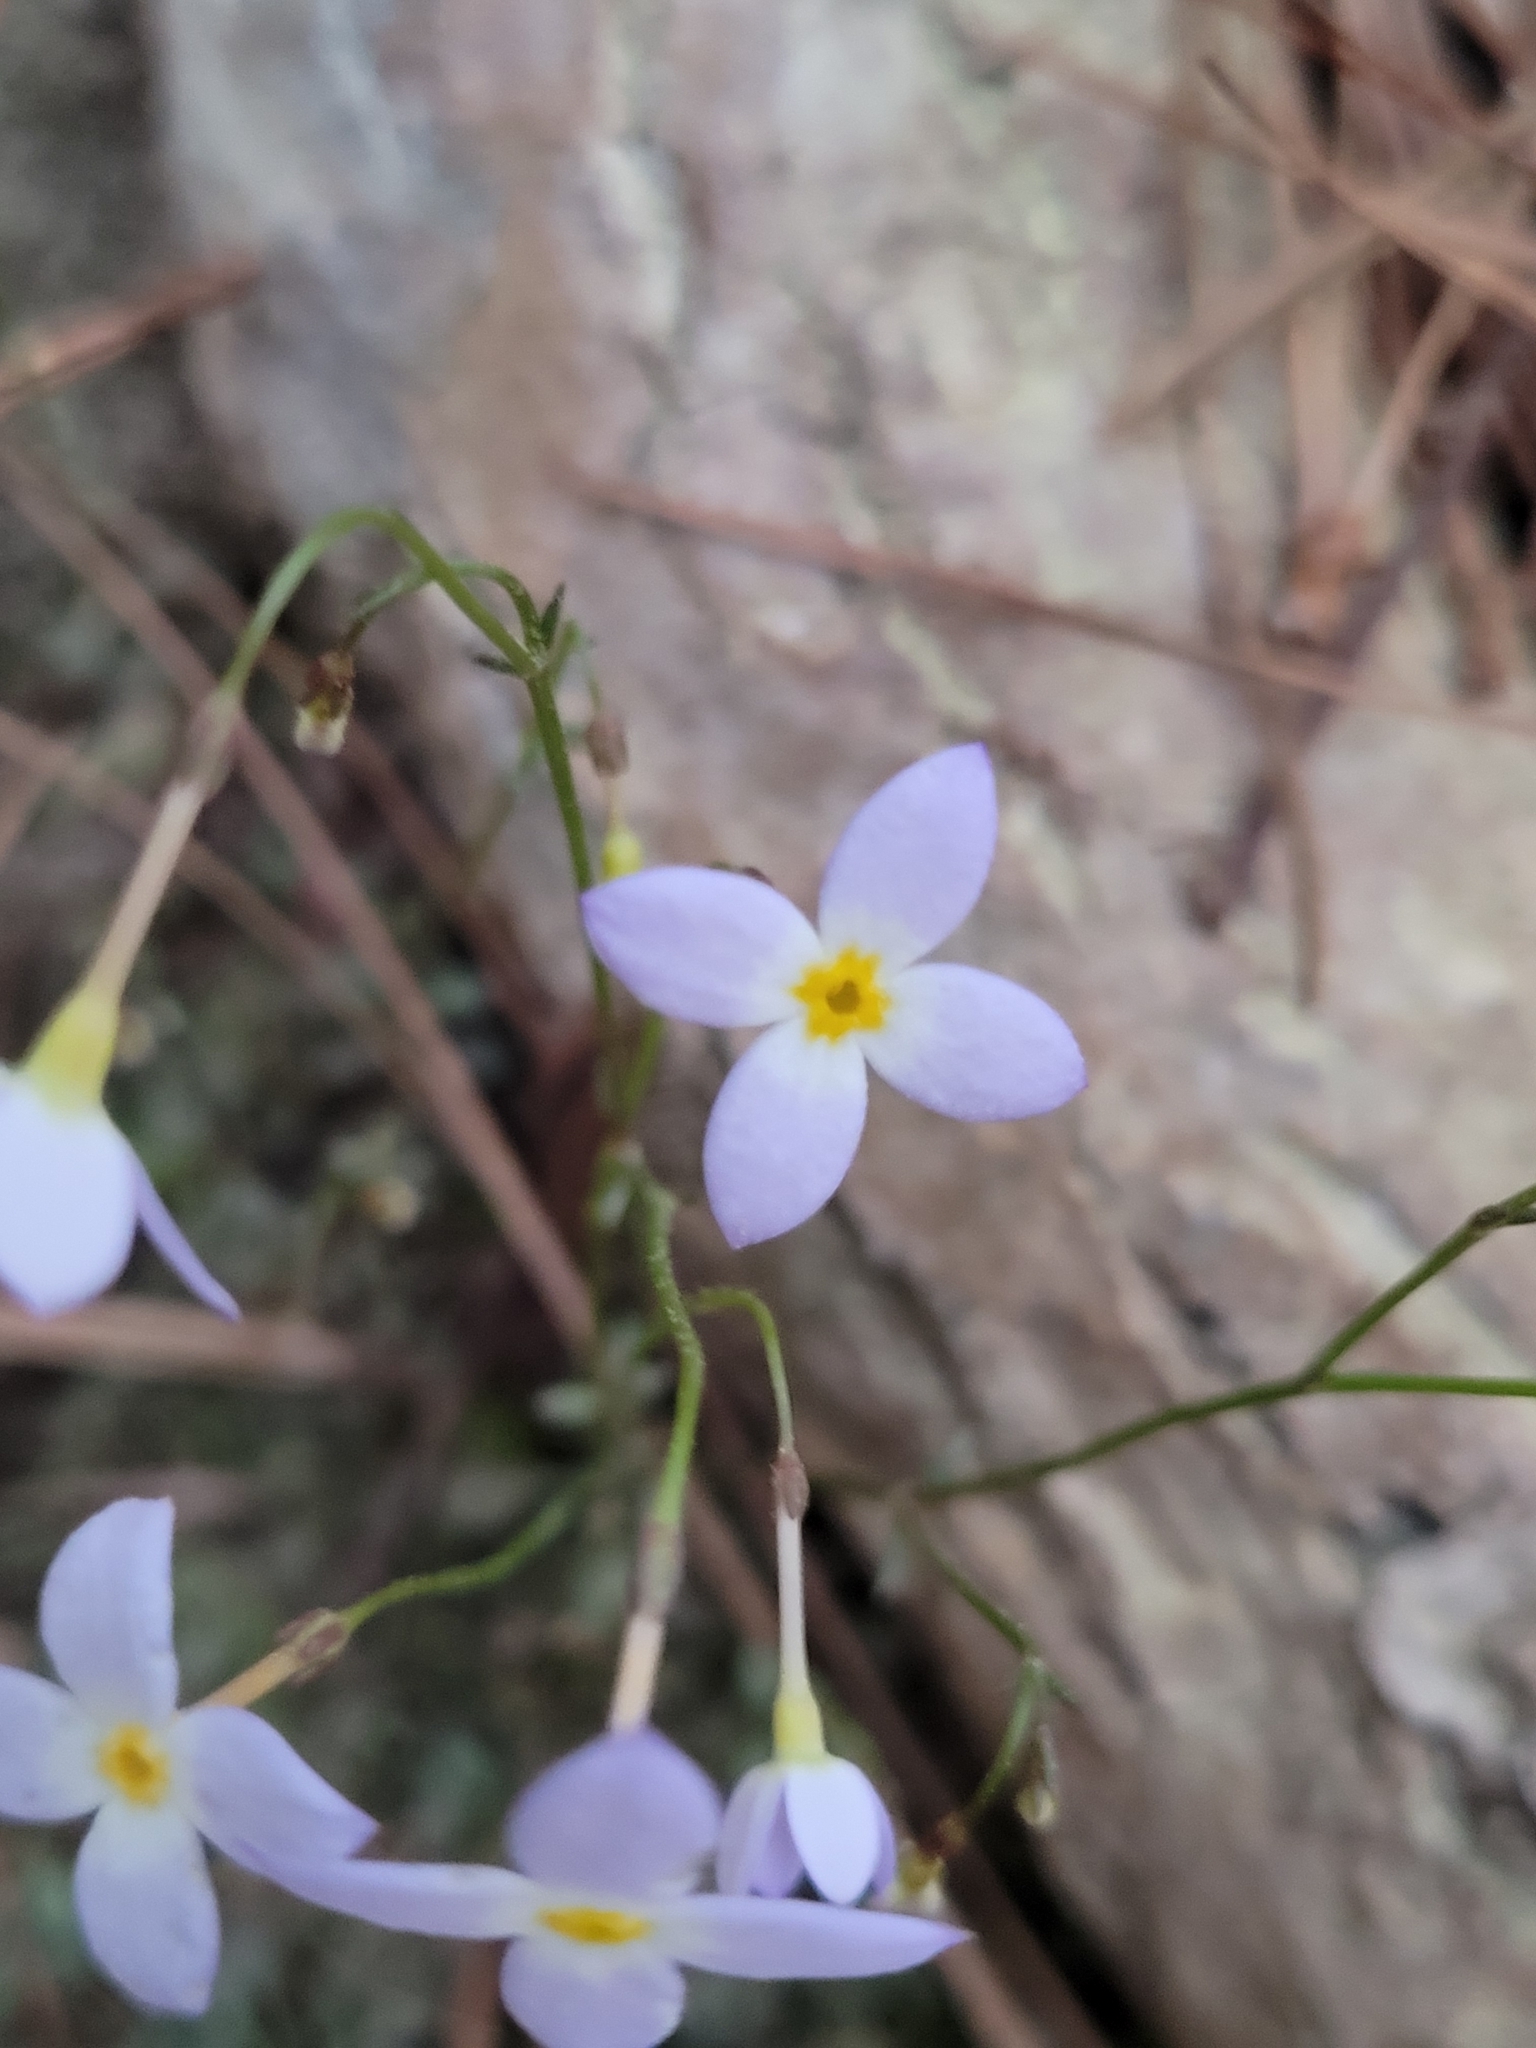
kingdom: Plantae
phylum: Tracheophyta
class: Magnoliopsida
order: Gentianales
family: Rubiaceae
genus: Houstonia
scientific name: Houstonia caerulea
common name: Bluets
